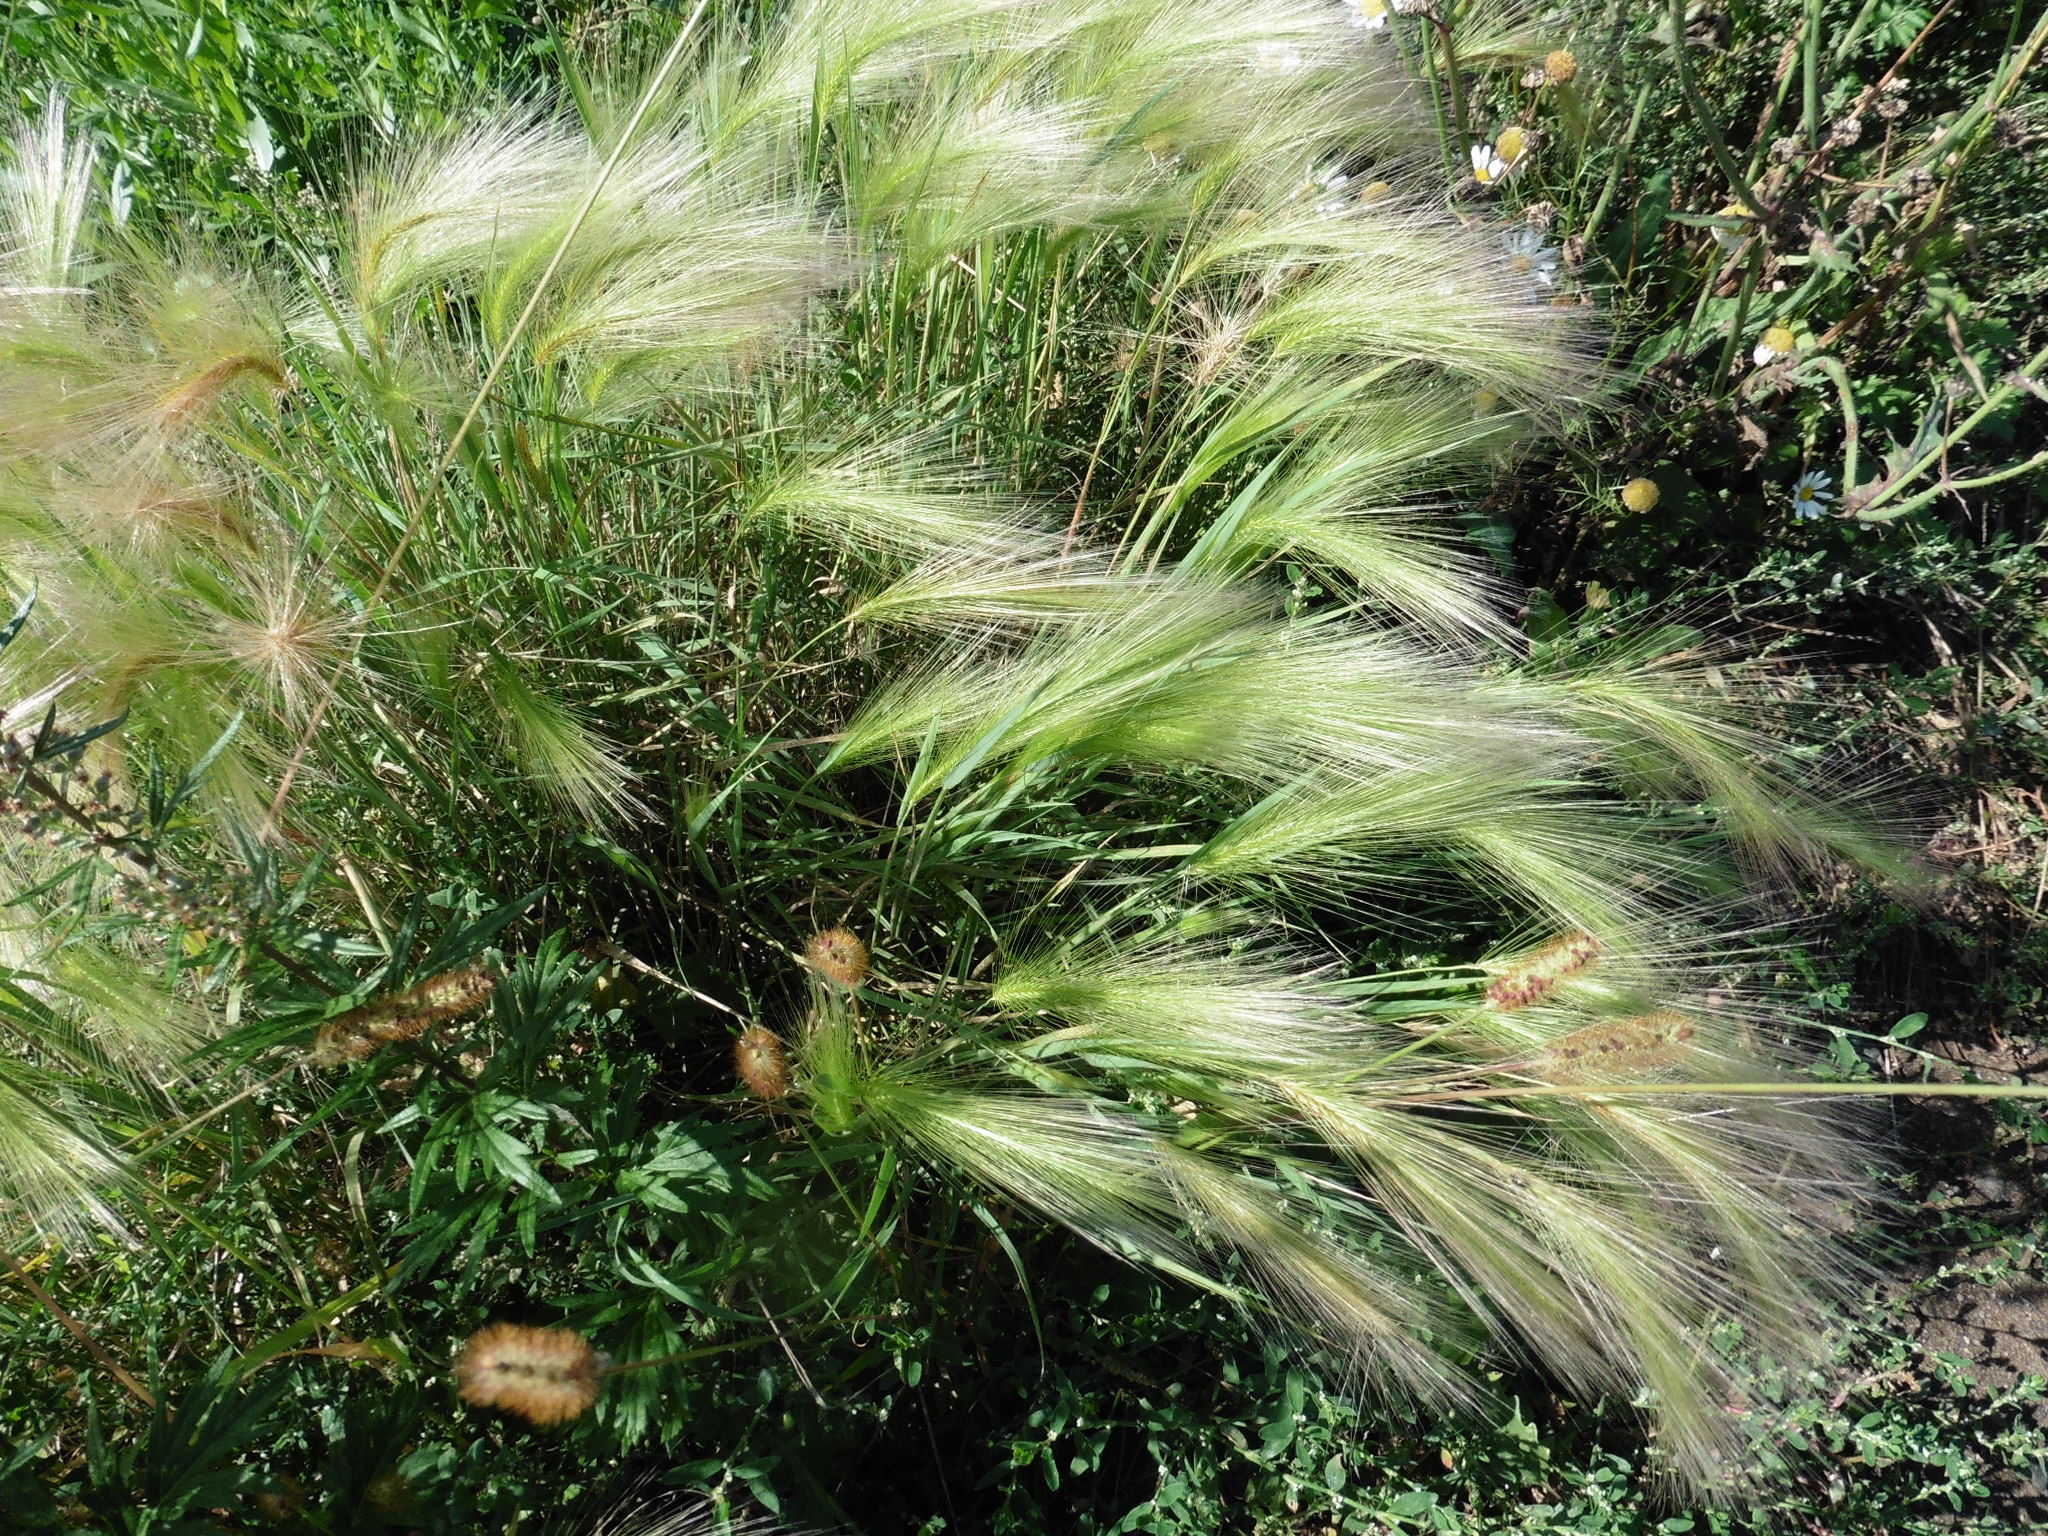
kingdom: Plantae
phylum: Tracheophyta
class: Liliopsida
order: Poales
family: Poaceae
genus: Hordeum
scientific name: Hordeum jubatum
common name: Foxtail barley
